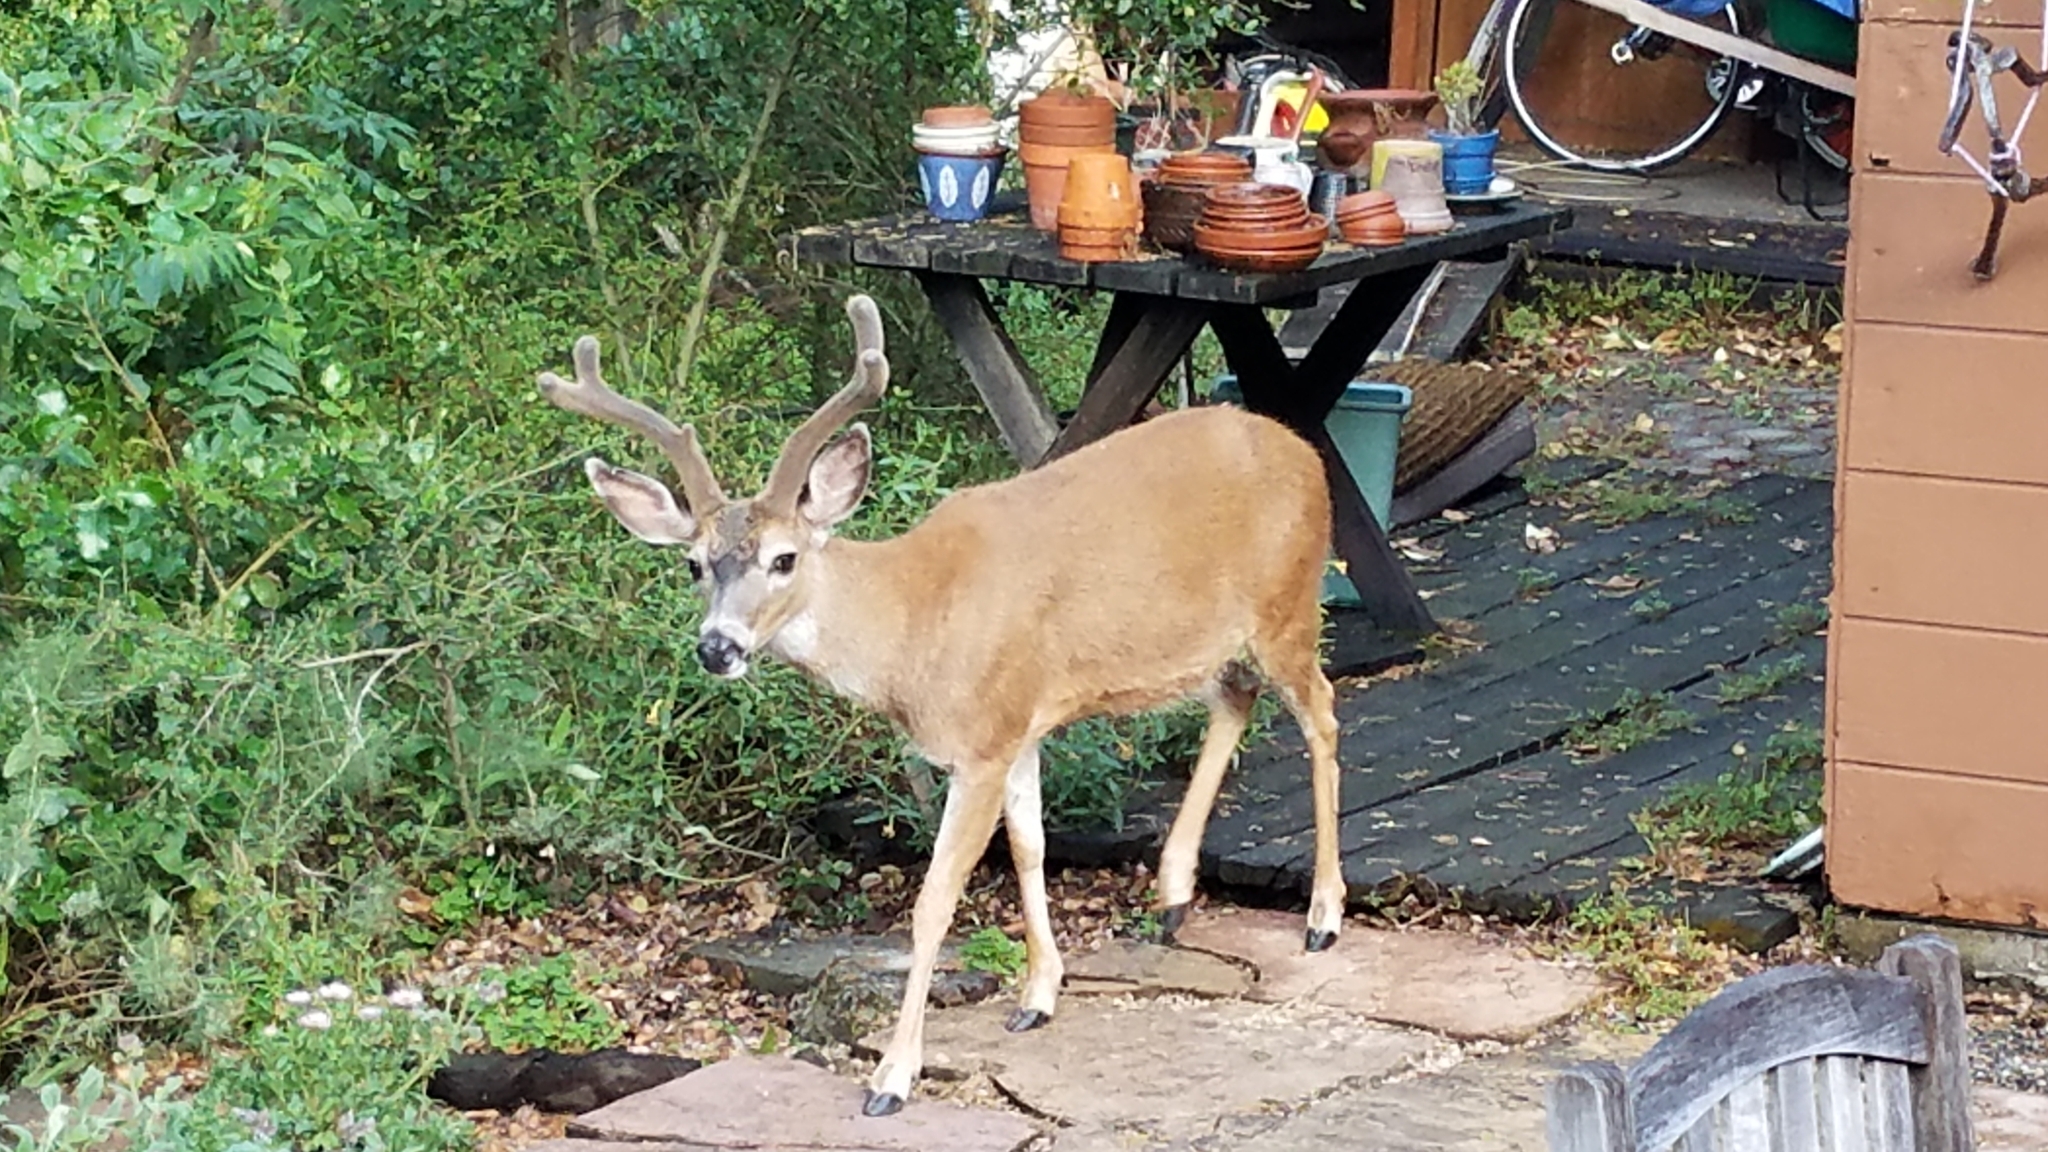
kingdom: Animalia
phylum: Chordata
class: Mammalia
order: Artiodactyla
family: Cervidae
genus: Odocoileus
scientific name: Odocoileus hemionus
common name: Mule deer
